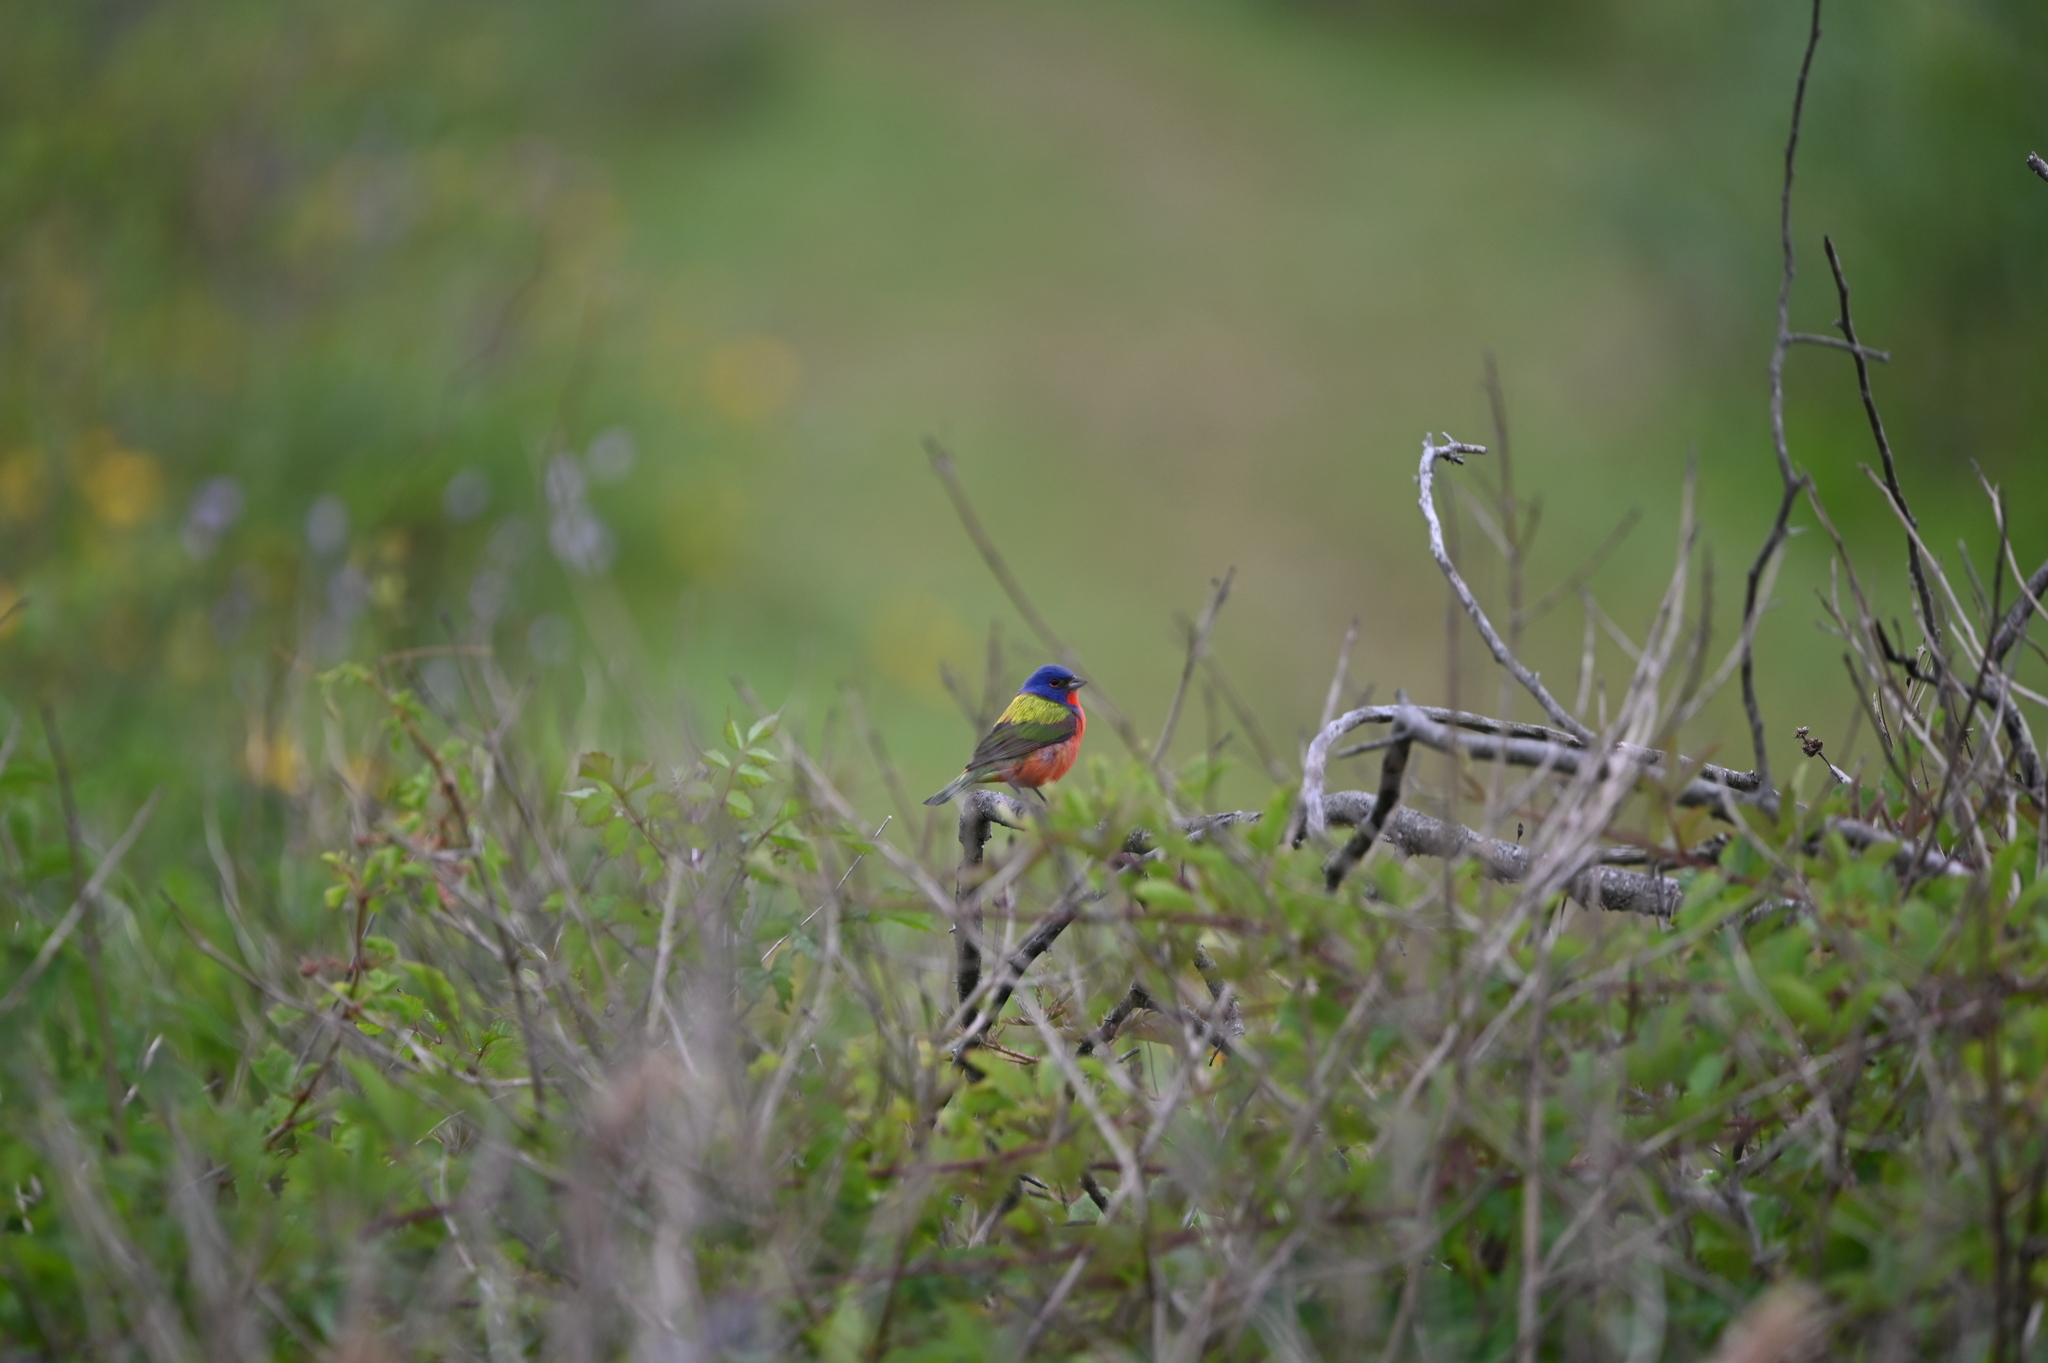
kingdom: Animalia
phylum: Chordata
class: Aves
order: Passeriformes
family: Cardinalidae
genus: Passerina
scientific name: Passerina ciris
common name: Painted bunting
